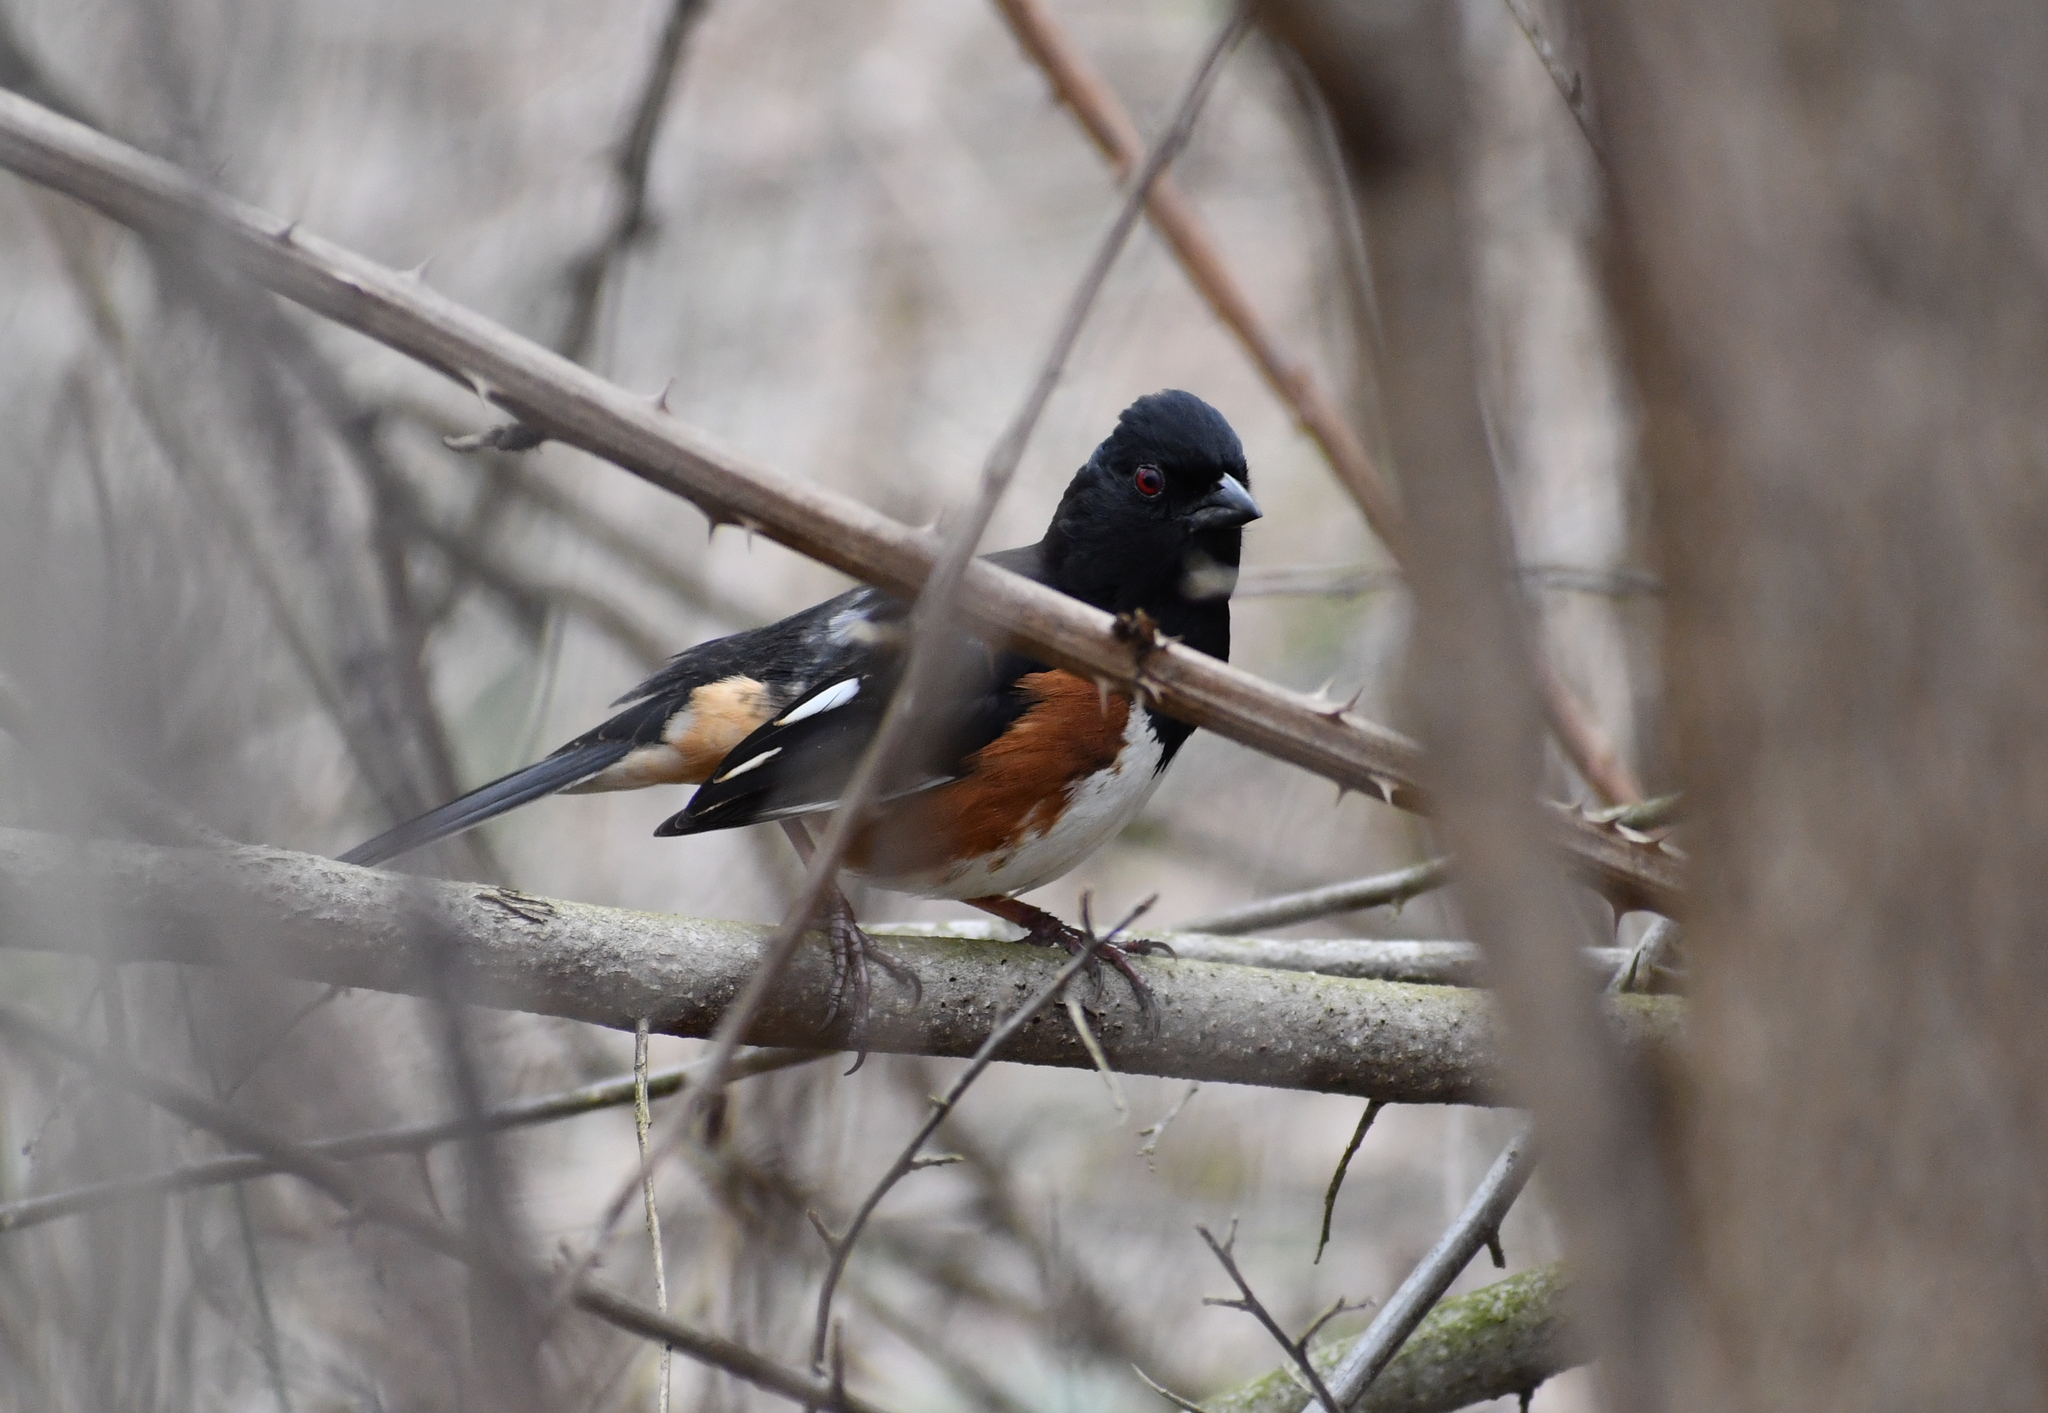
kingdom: Animalia
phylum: Chordata
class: Aves
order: Passeriformes
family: Passerellidae
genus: Pipilo
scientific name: Pipilo erythrophthalmus
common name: Eastern towhee
